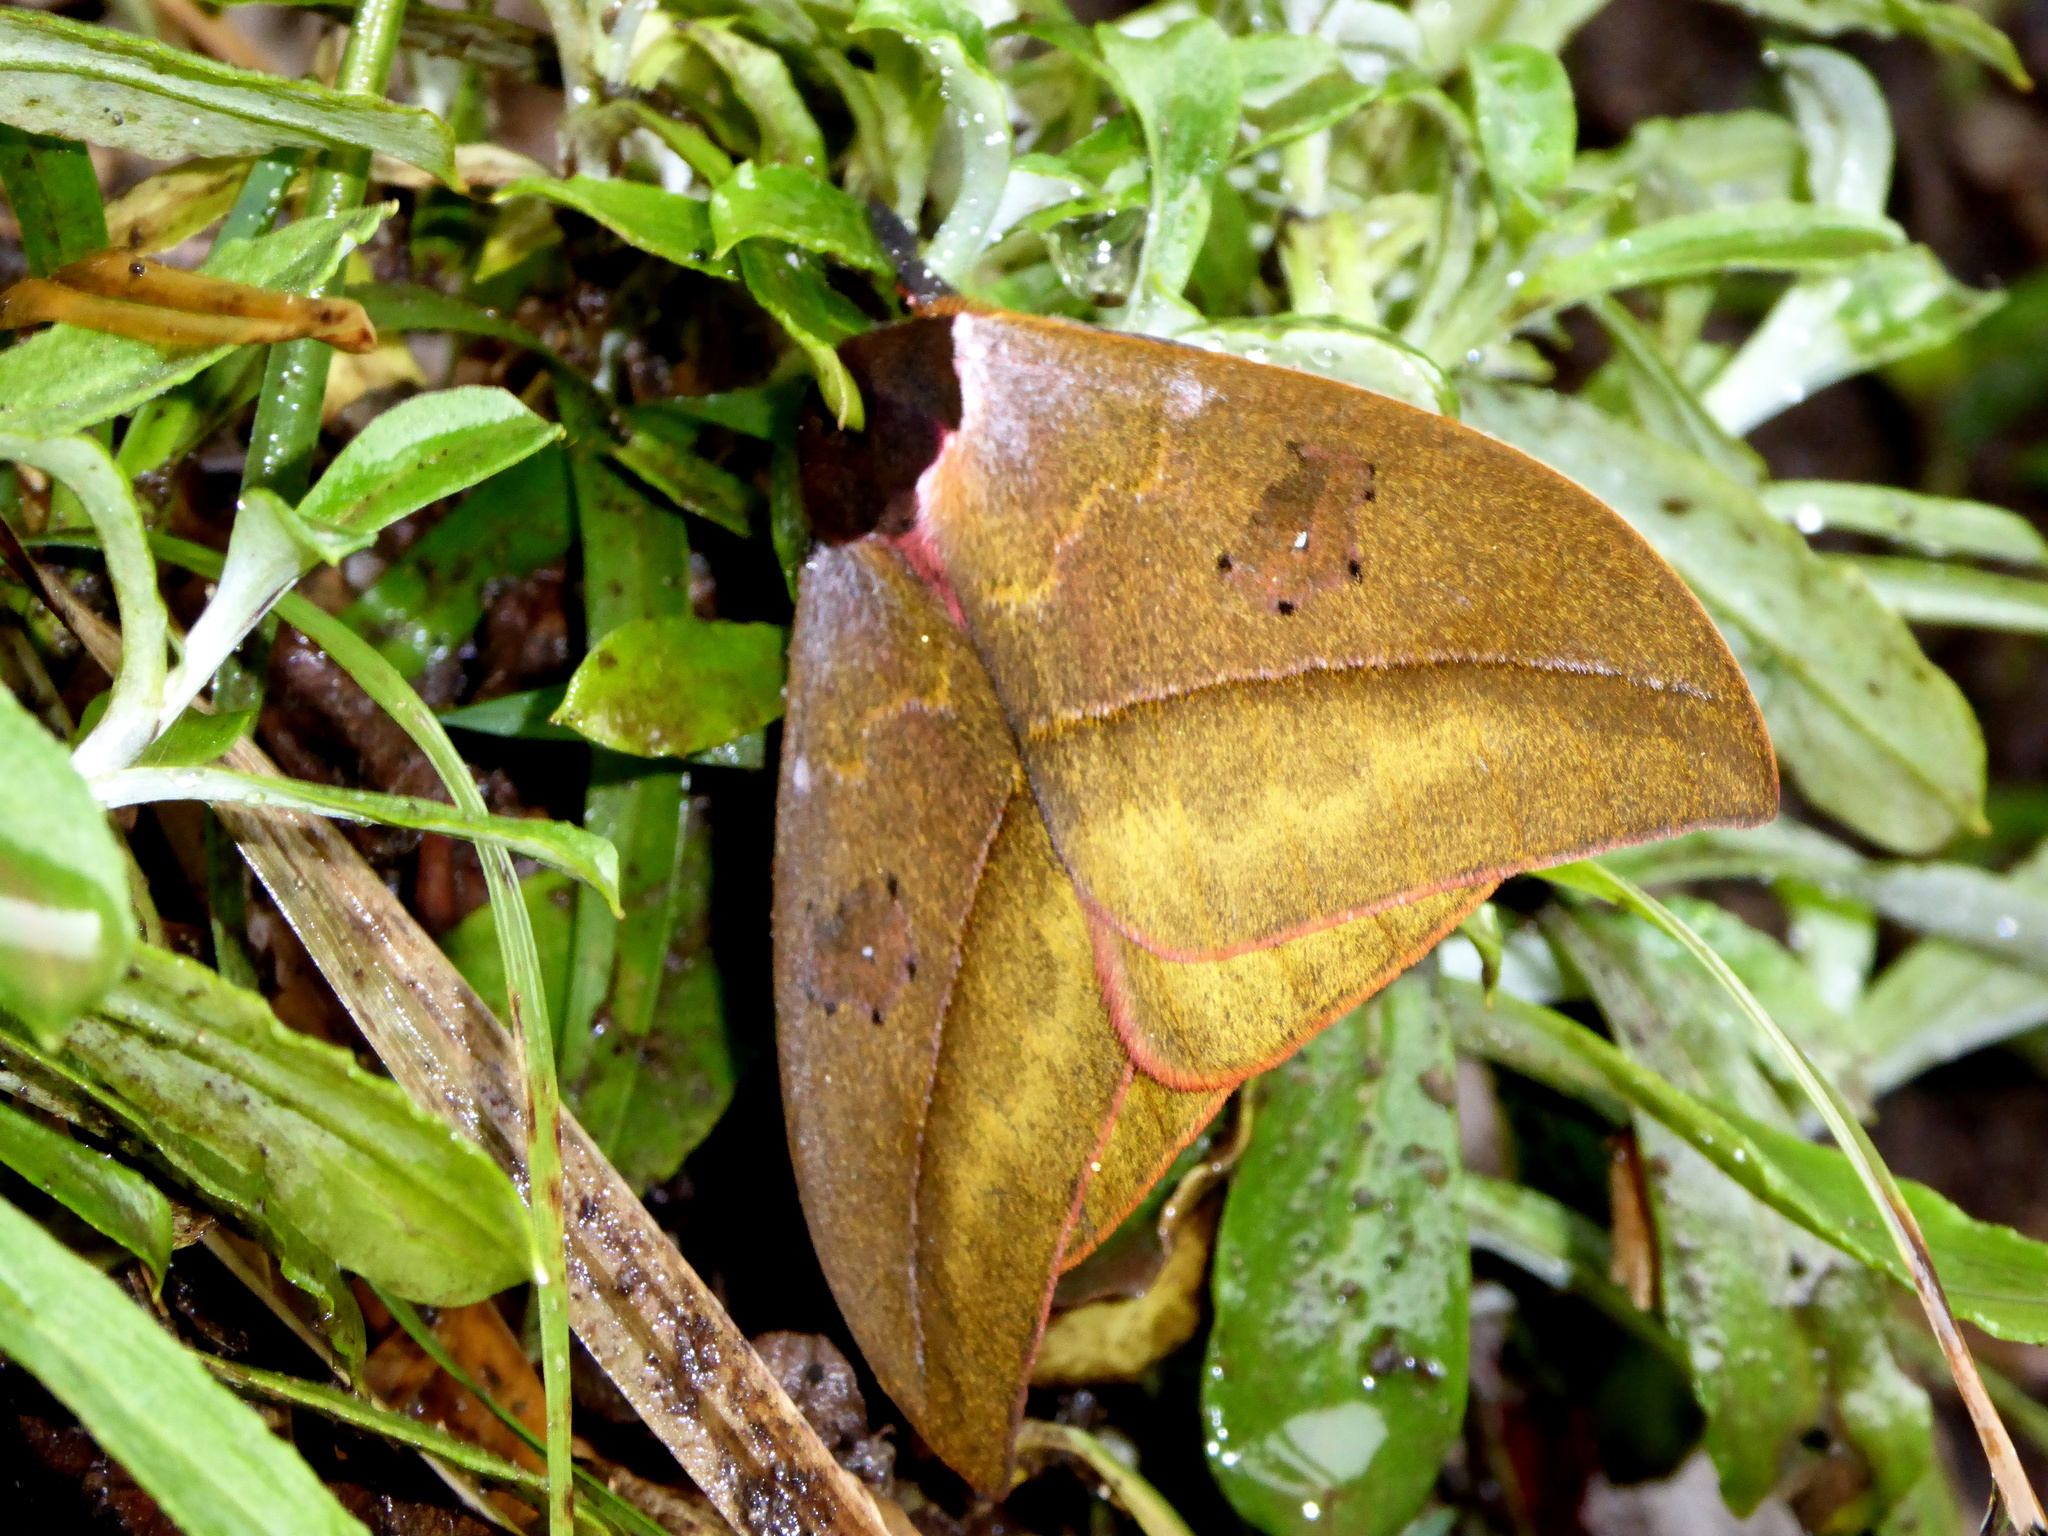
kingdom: Animalia
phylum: Arthropoda
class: Insecta
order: Lepidoptera
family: Saturniidae
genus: Automeris
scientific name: Automeris kopturae
